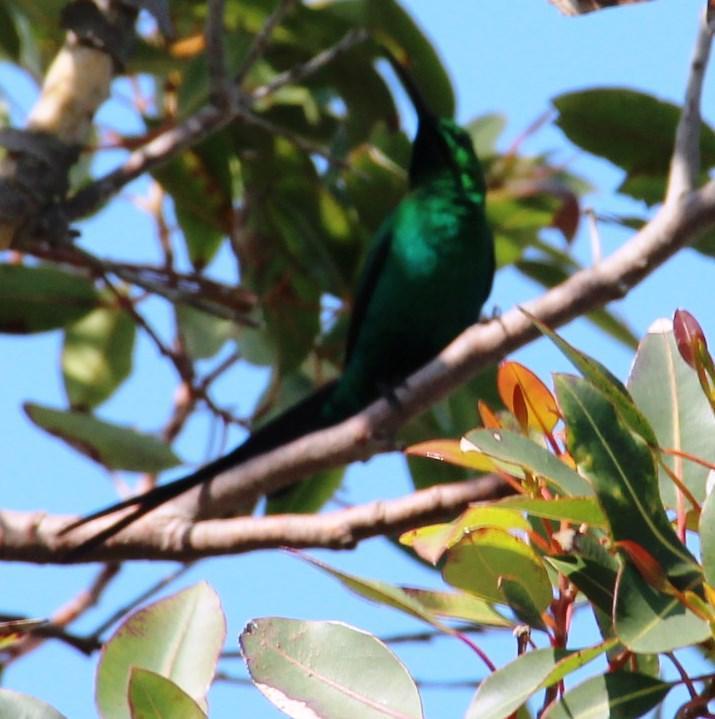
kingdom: Animalia
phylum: Chordata
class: Aves
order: Passeriformes
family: Nectariniidae
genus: Nectarinia
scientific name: Nectarinia famosa
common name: Malachite sunbird
